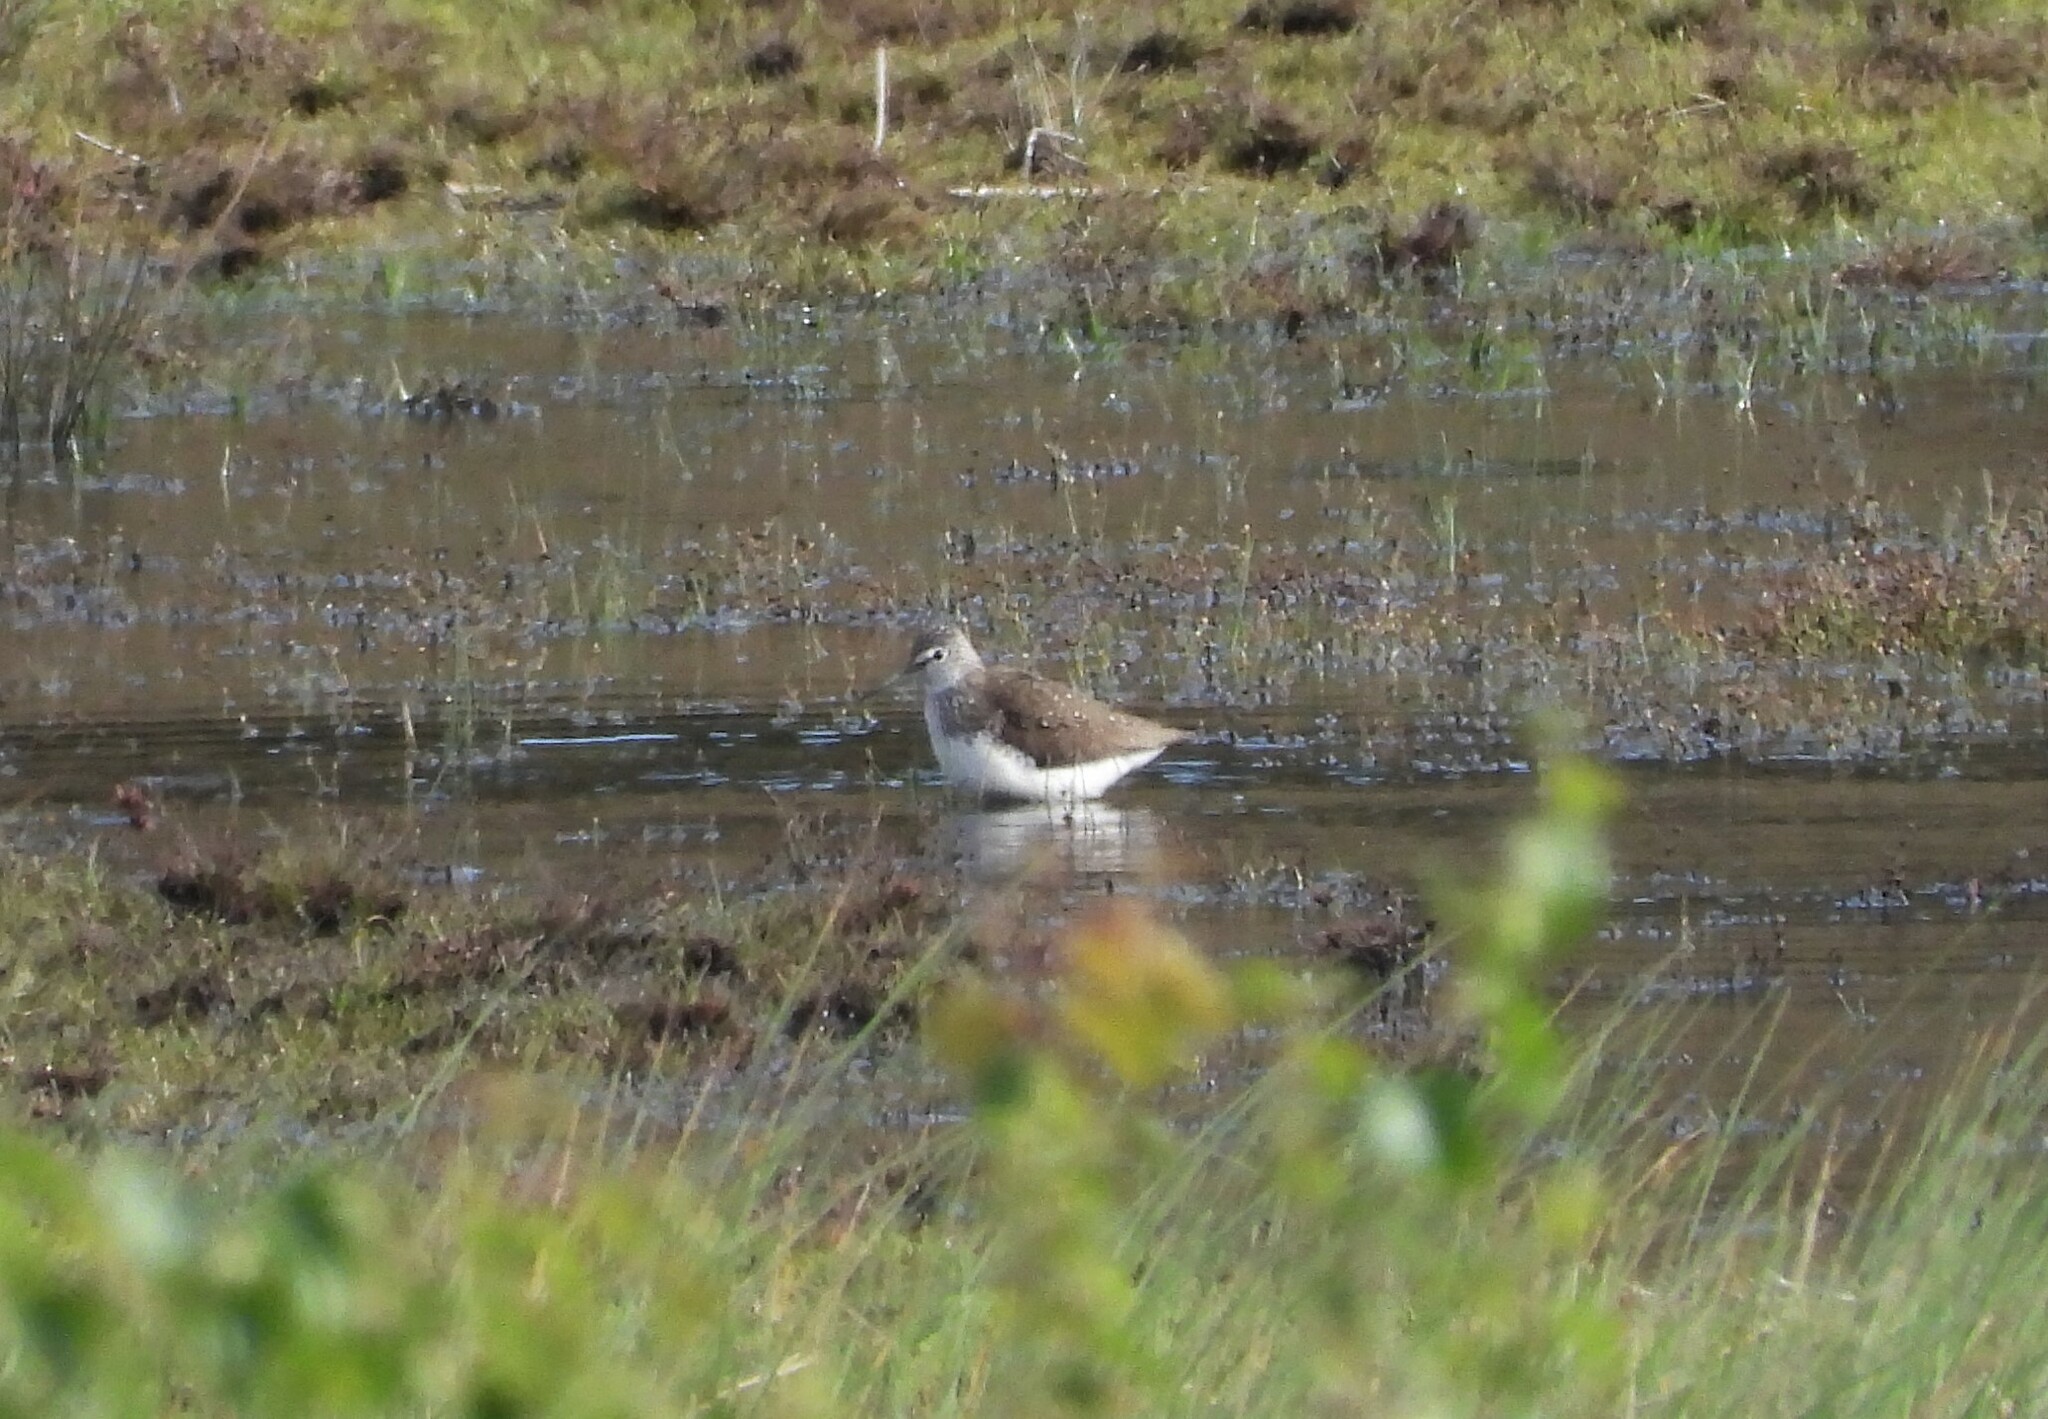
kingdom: Animalia
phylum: Chordata
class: Aves
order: Charadriiformes
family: Scolopacidae
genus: Tringa
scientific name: Tringa ochropus
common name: Green sandpiper
